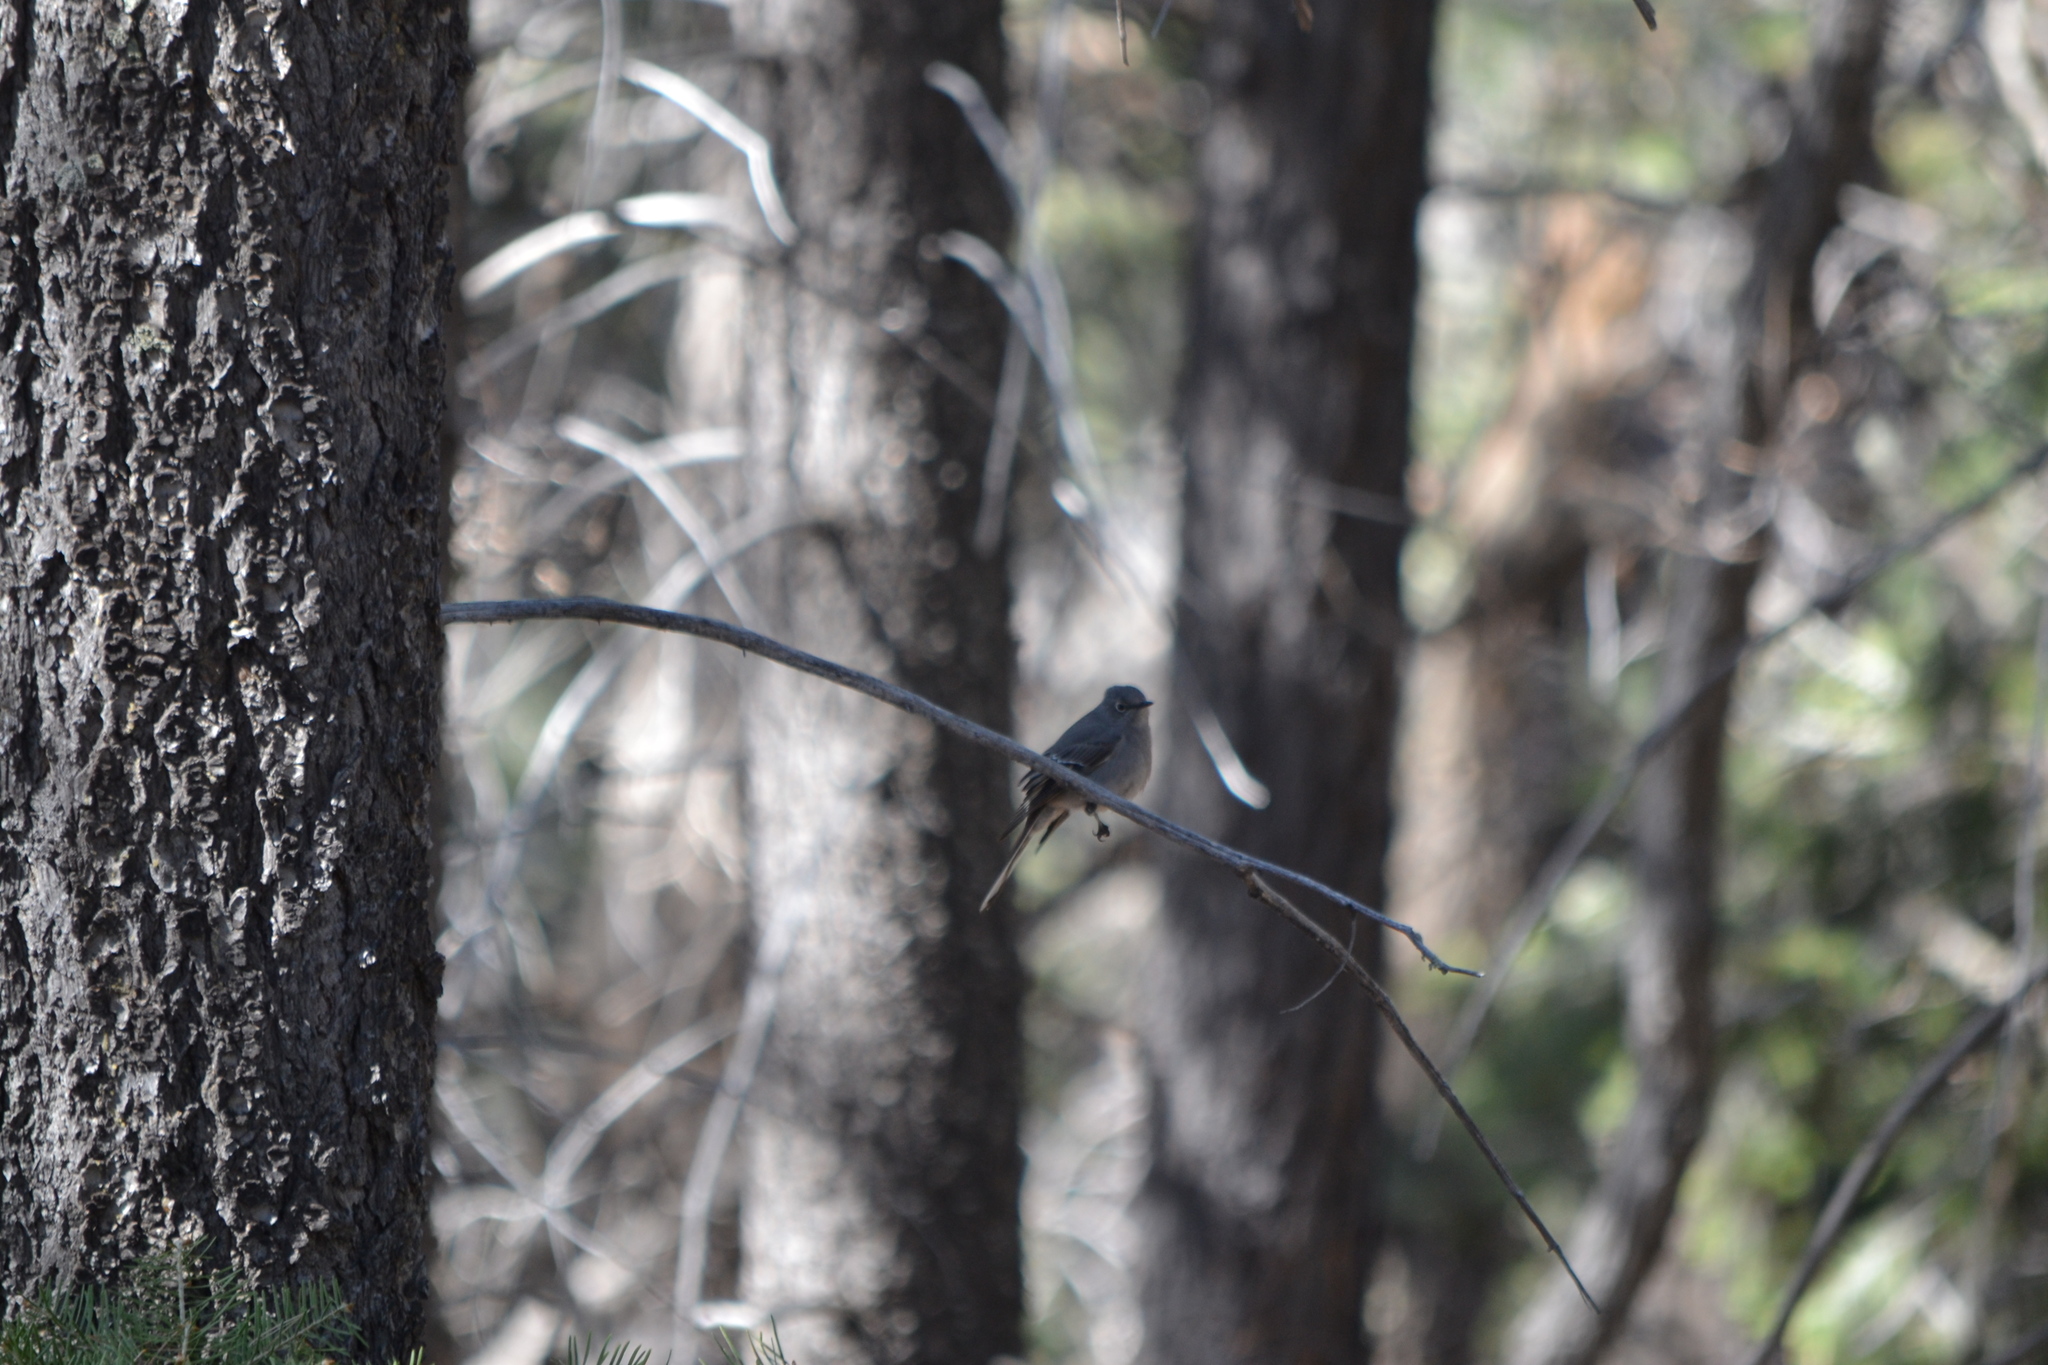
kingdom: Animalia
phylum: Chordata
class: Aves
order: Passeriformes
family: Turdidae
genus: Myadestes
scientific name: Myadestes townsendi
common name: Townsend's solitaire
